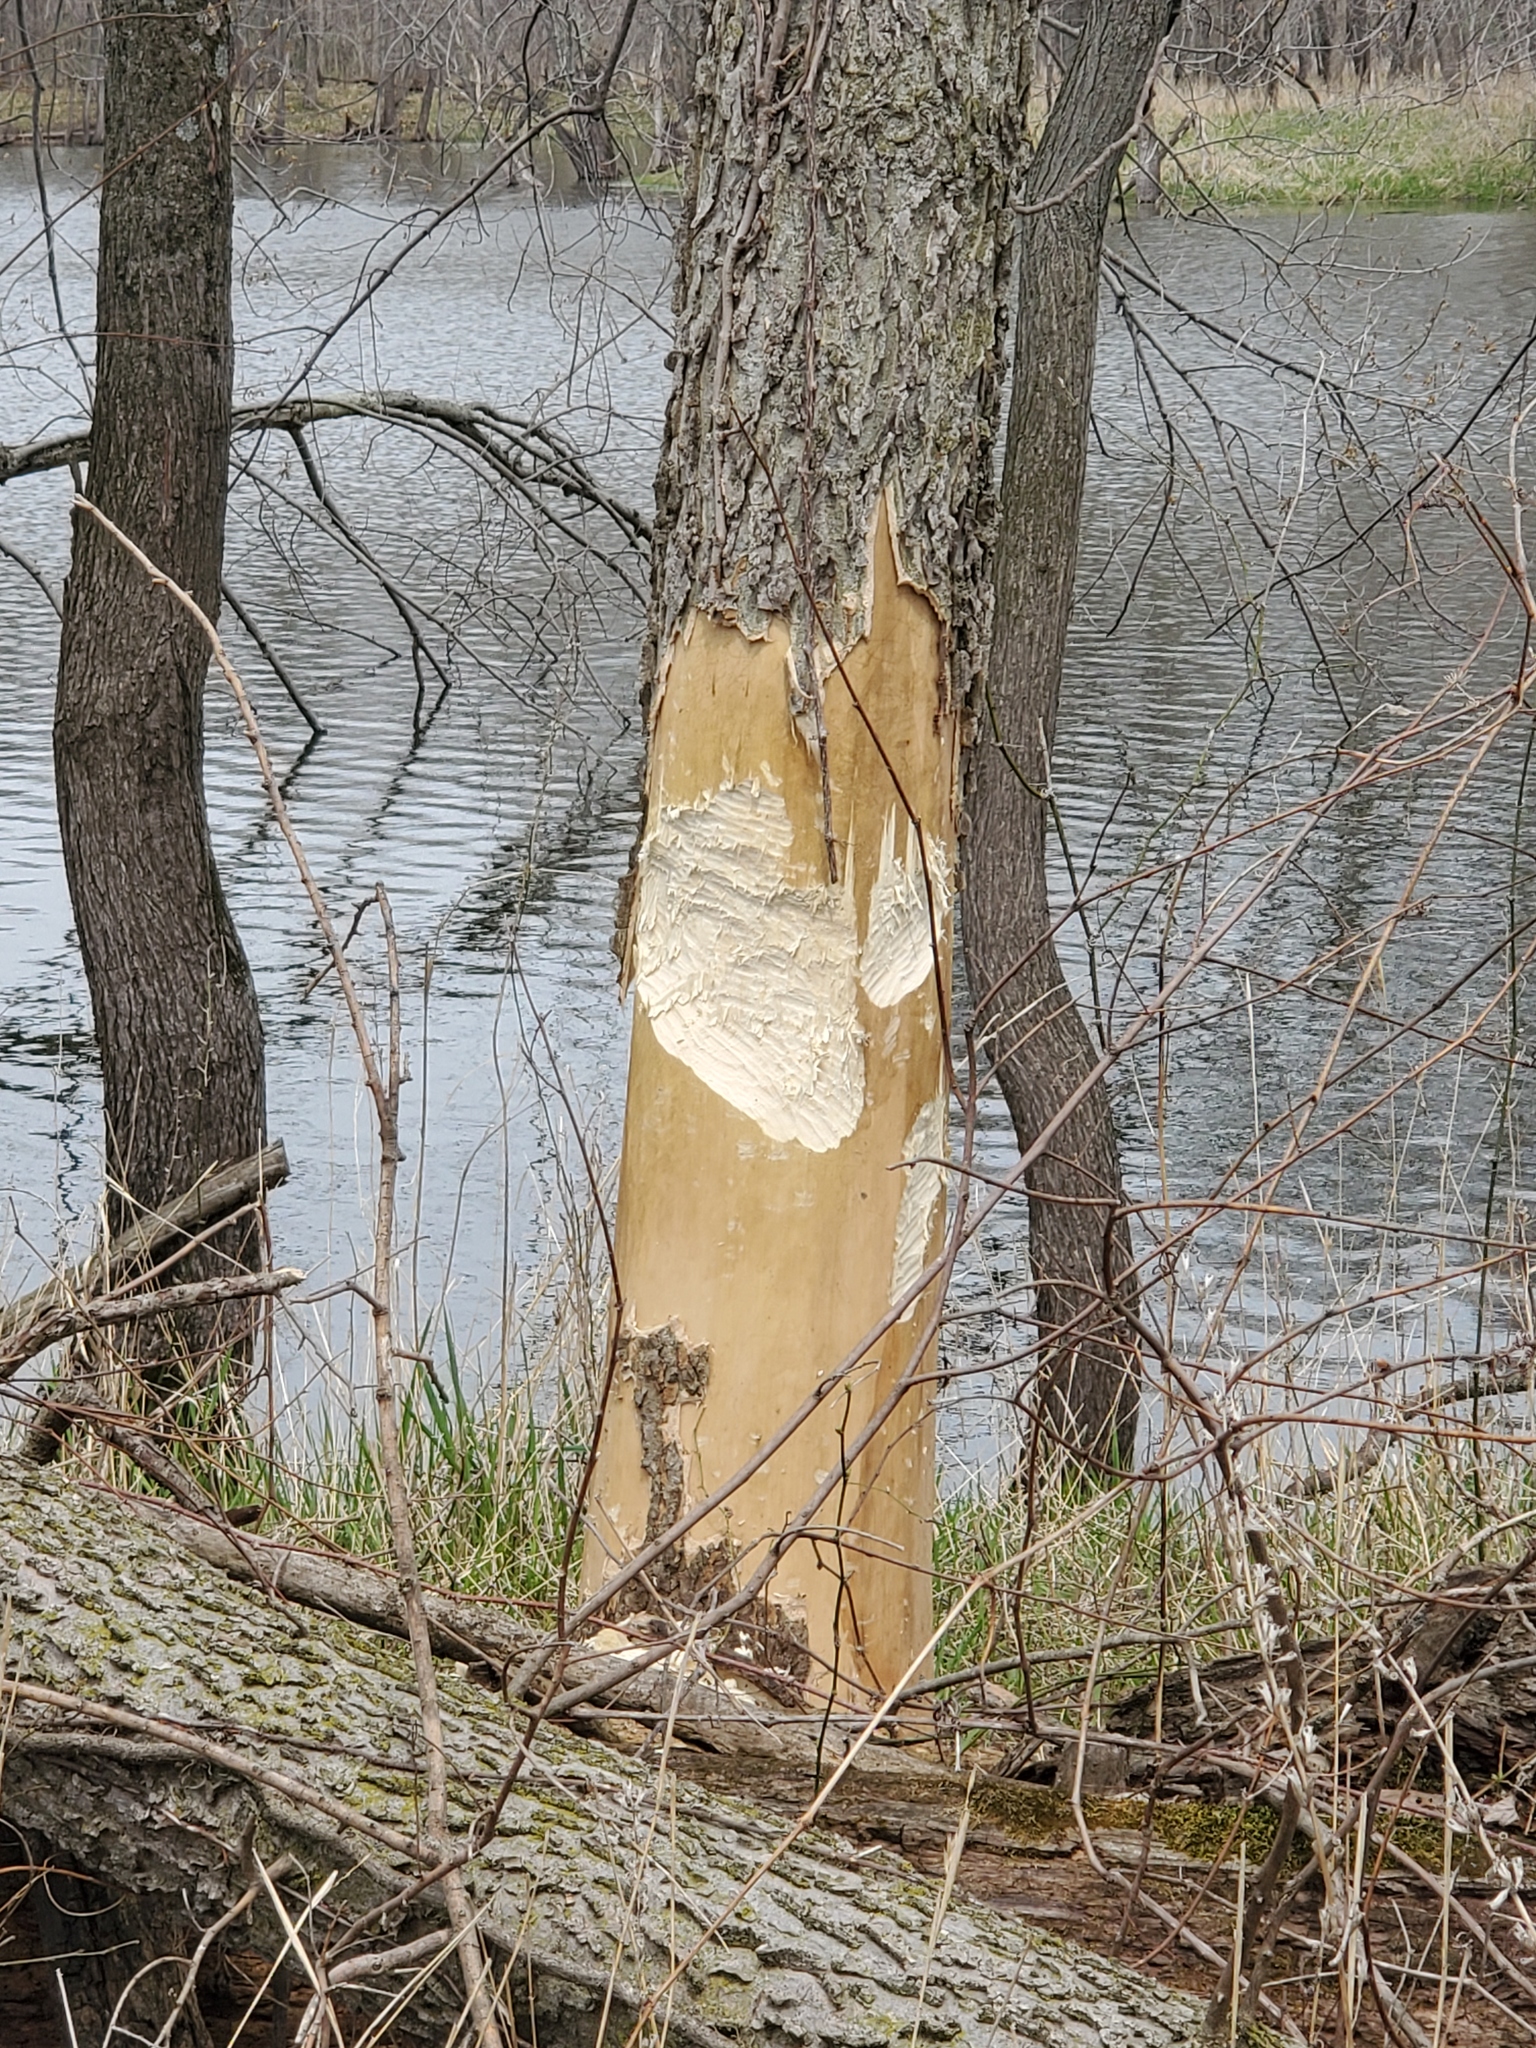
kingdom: Animalia
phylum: Chordata
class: Mammalia
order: Rodentia
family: Castoridae
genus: Castor
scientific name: Castor canadensis
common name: American beaver
